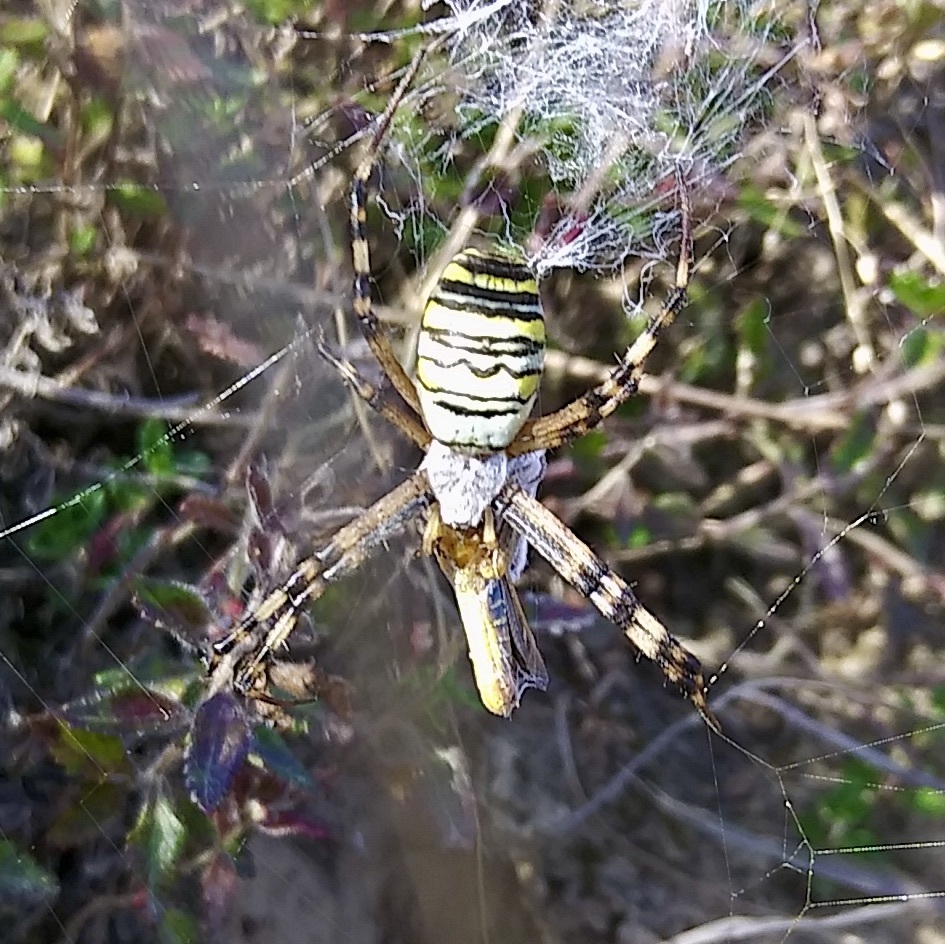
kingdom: Animalia
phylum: Arthropoda
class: Arachnida
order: Araneae
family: Araneidae
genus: Argiope
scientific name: Argiope bruennichi
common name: Wasp spider
